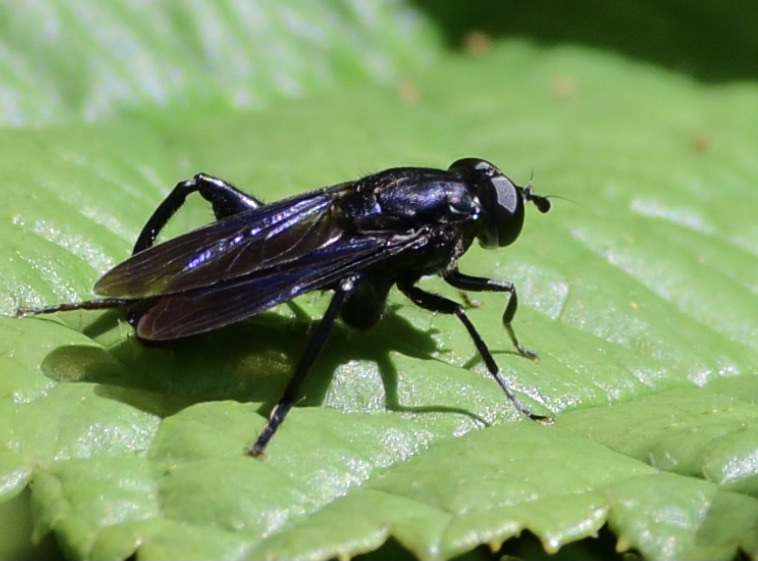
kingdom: Animalia
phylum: Arthropoda
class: Insecta
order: Diptera
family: Syrphidae
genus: Chalcosyrphus
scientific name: Chalcosyrphus chalybeus
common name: Violet leafwalker
